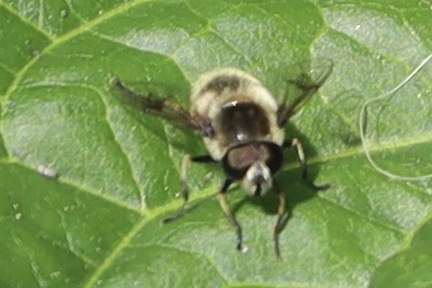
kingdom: Animalia
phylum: Arthropoda
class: Insecta
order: Diptera
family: Syrphidae
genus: Eristalis
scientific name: Eristalis anthophorina
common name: Orange-spotted drone fly
